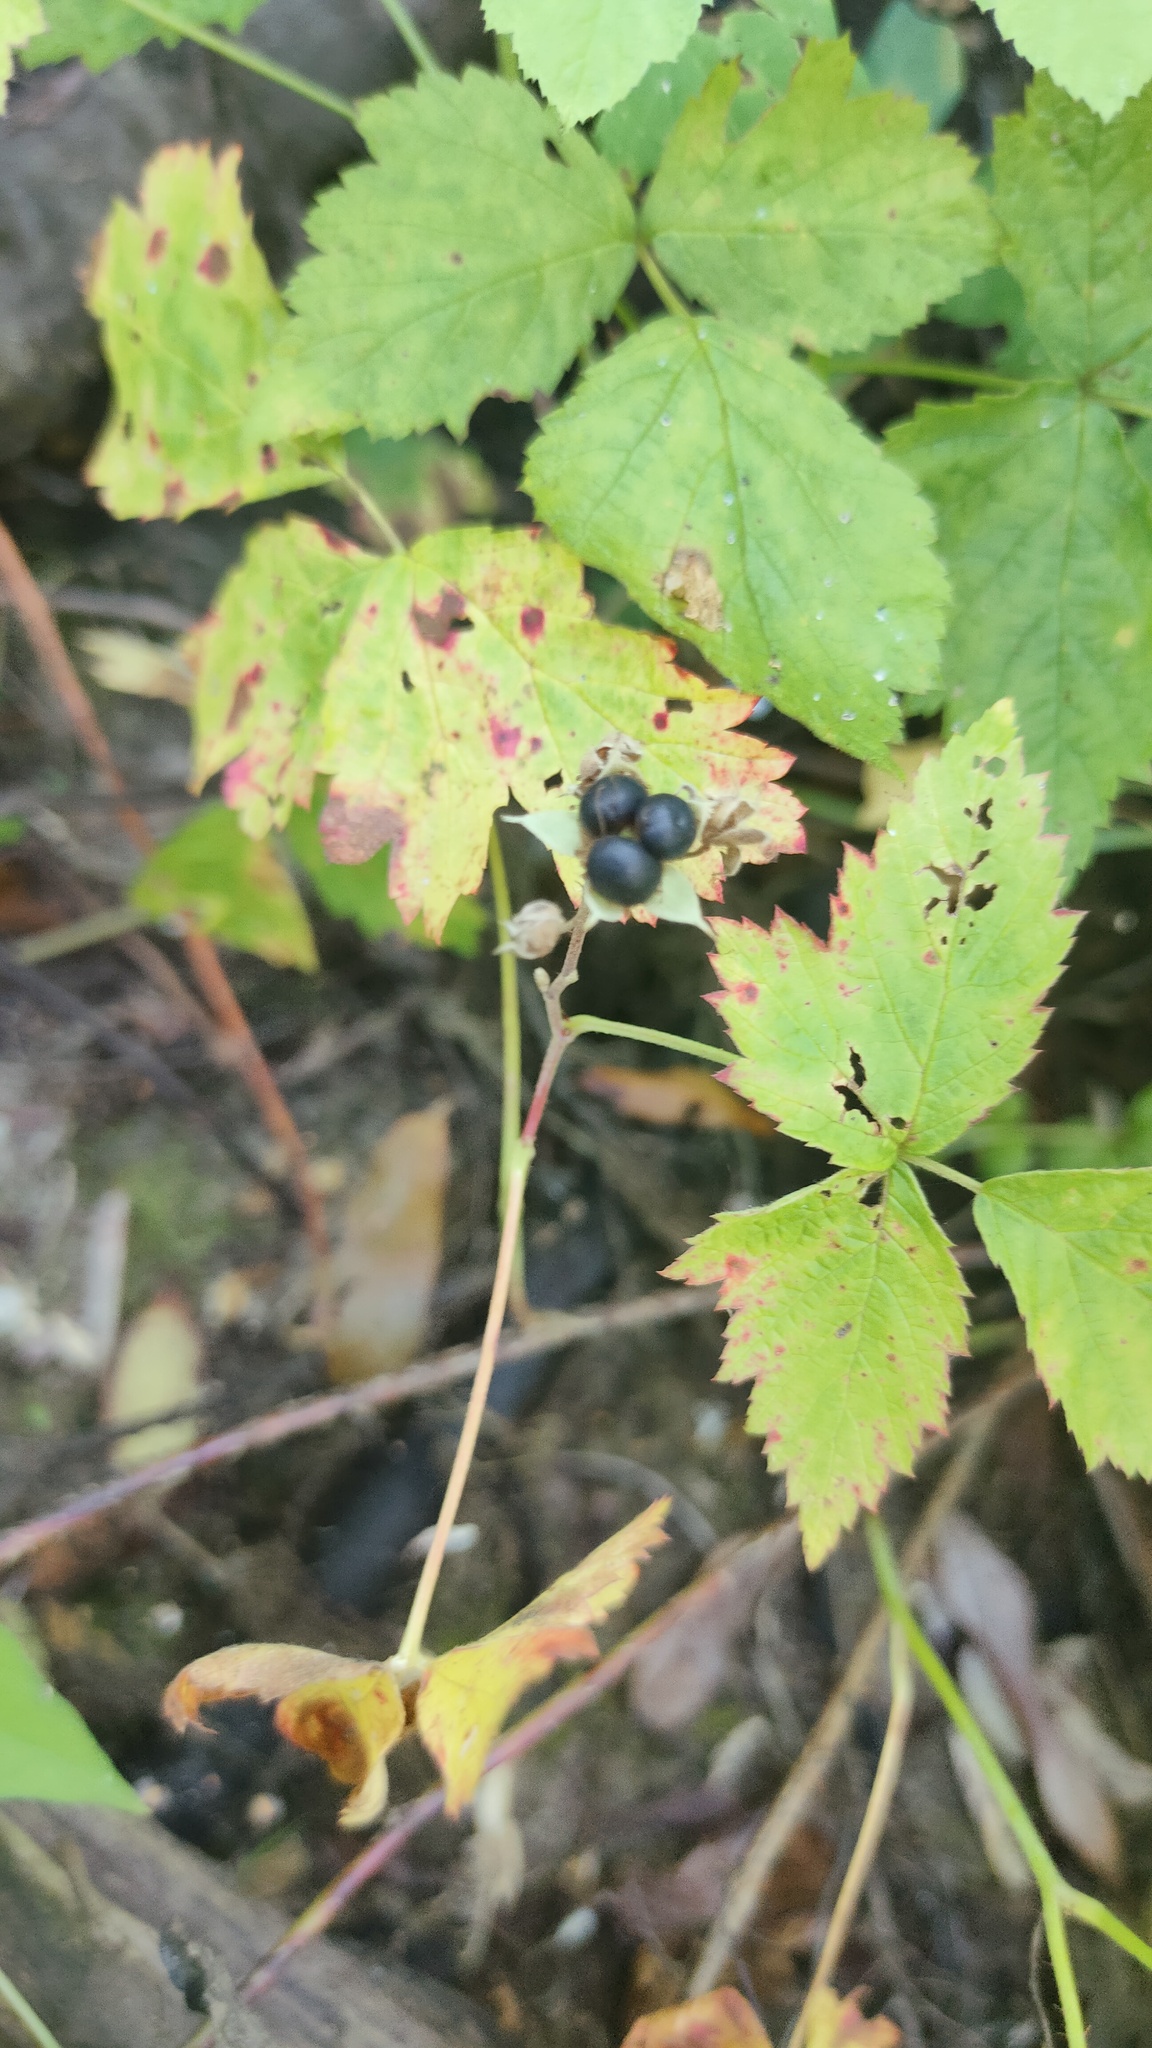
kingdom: Plantae
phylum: Tracheophyta
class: Magnoliopsida
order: Rosales
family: Rosaceae
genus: Rubus
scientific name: Rubus caesius
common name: Dewberry
